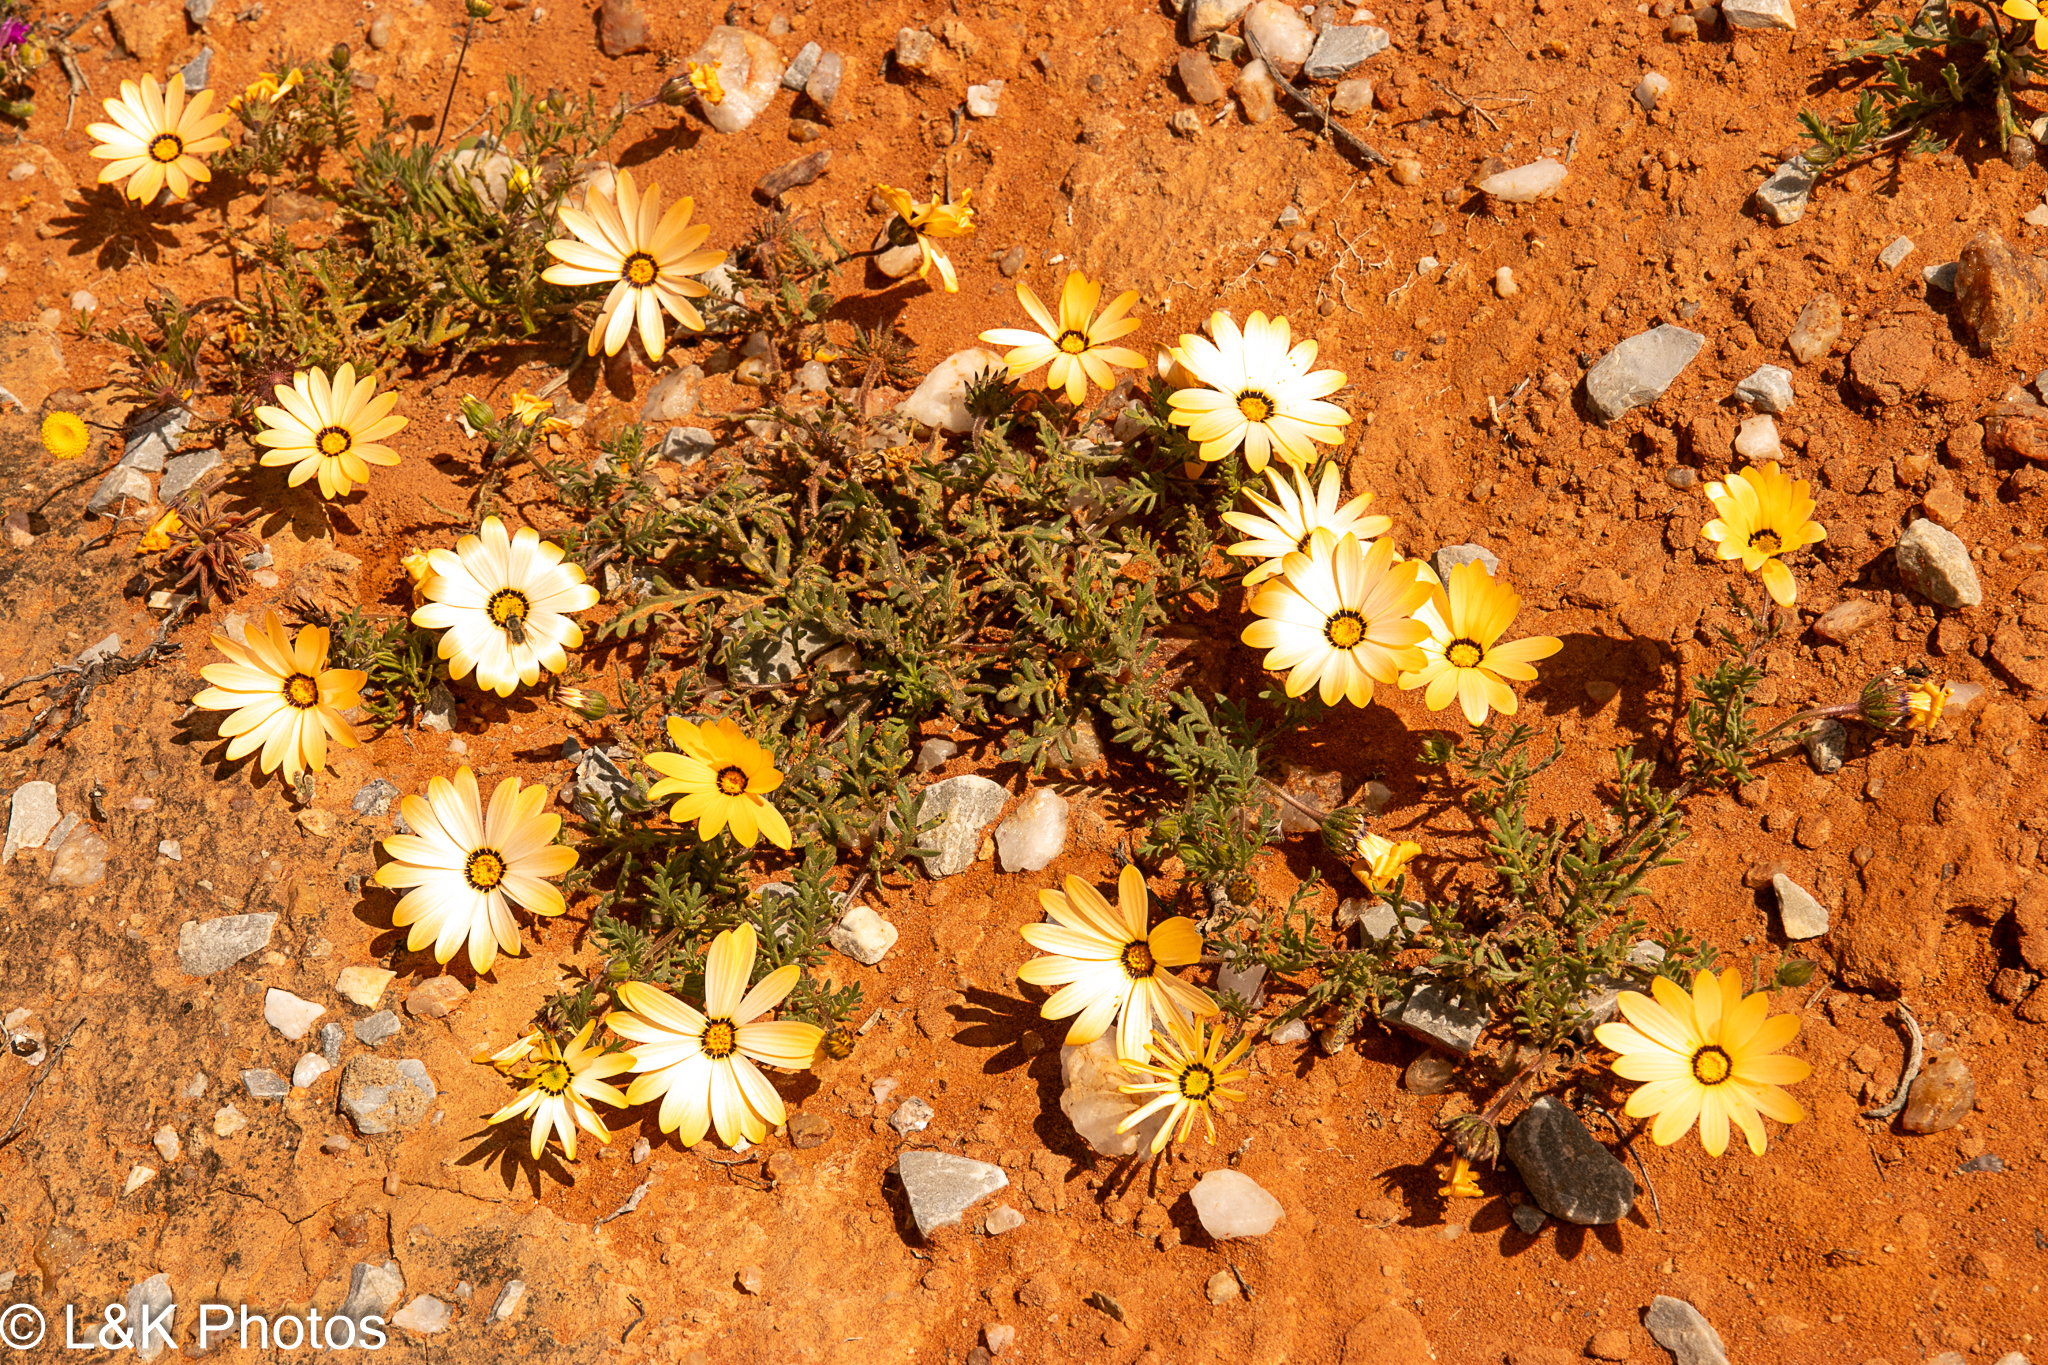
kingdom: Plantae
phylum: Tracheophyta
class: Magnoliopsida
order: Asterales
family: Asteraceae
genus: Dimorphotheca
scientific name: Dimorphotheca pinnata
